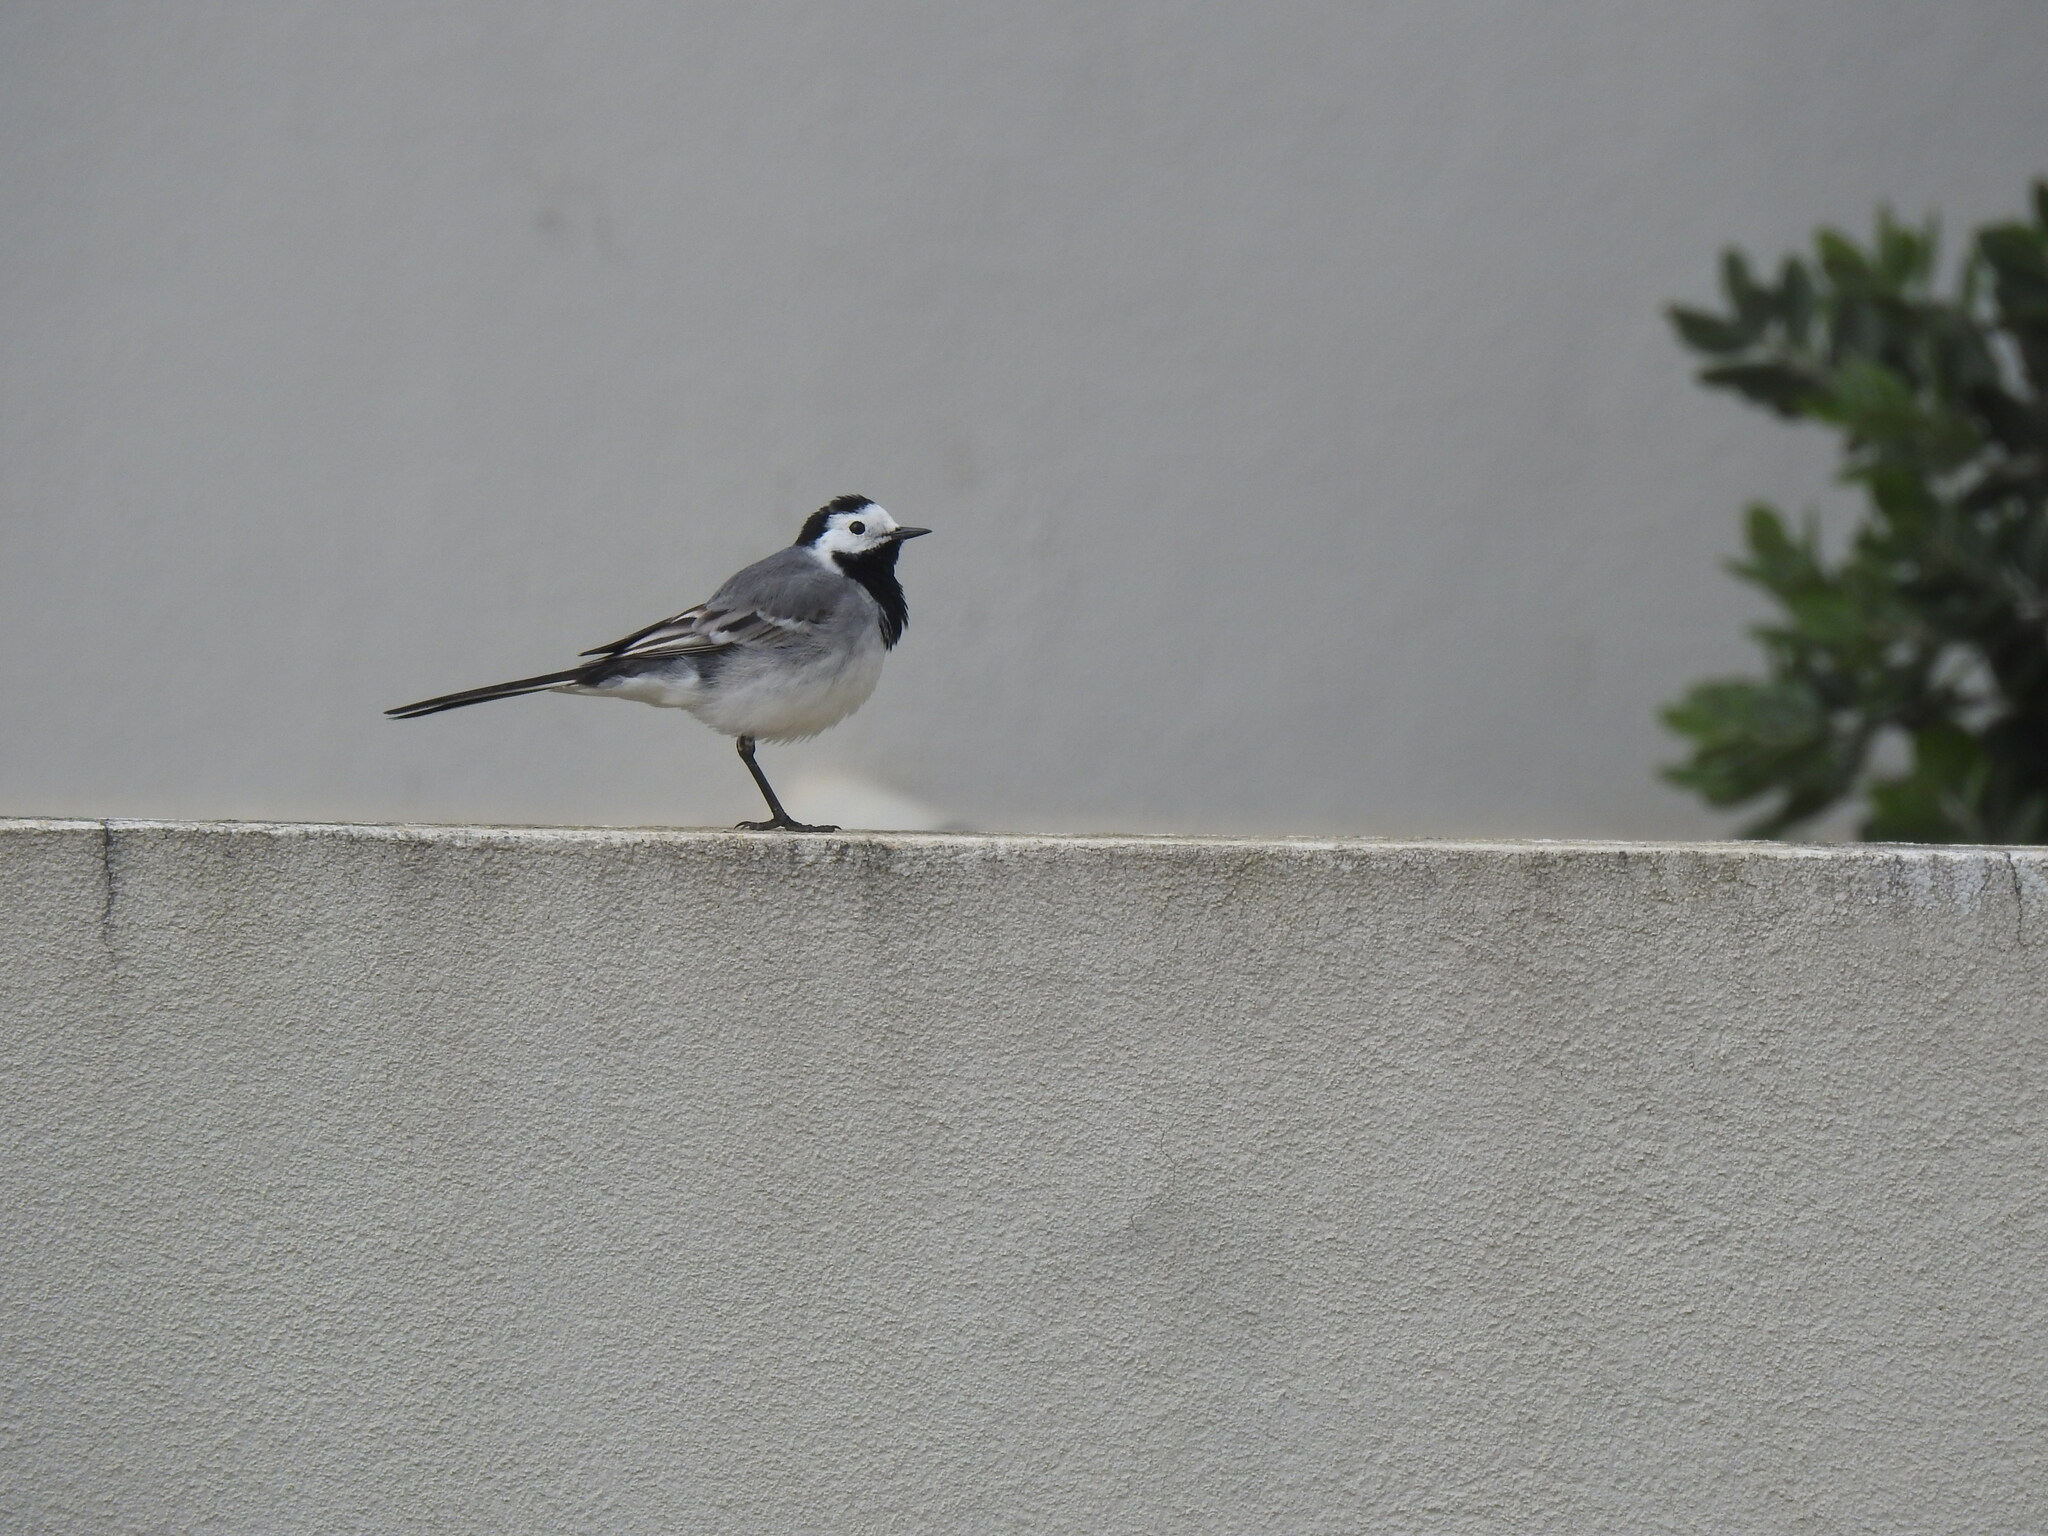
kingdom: Animalia
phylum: Chordata
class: Aves
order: Passeriformes
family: Motacillidae
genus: Motacilla
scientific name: Motacilla alba
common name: White wagtail
